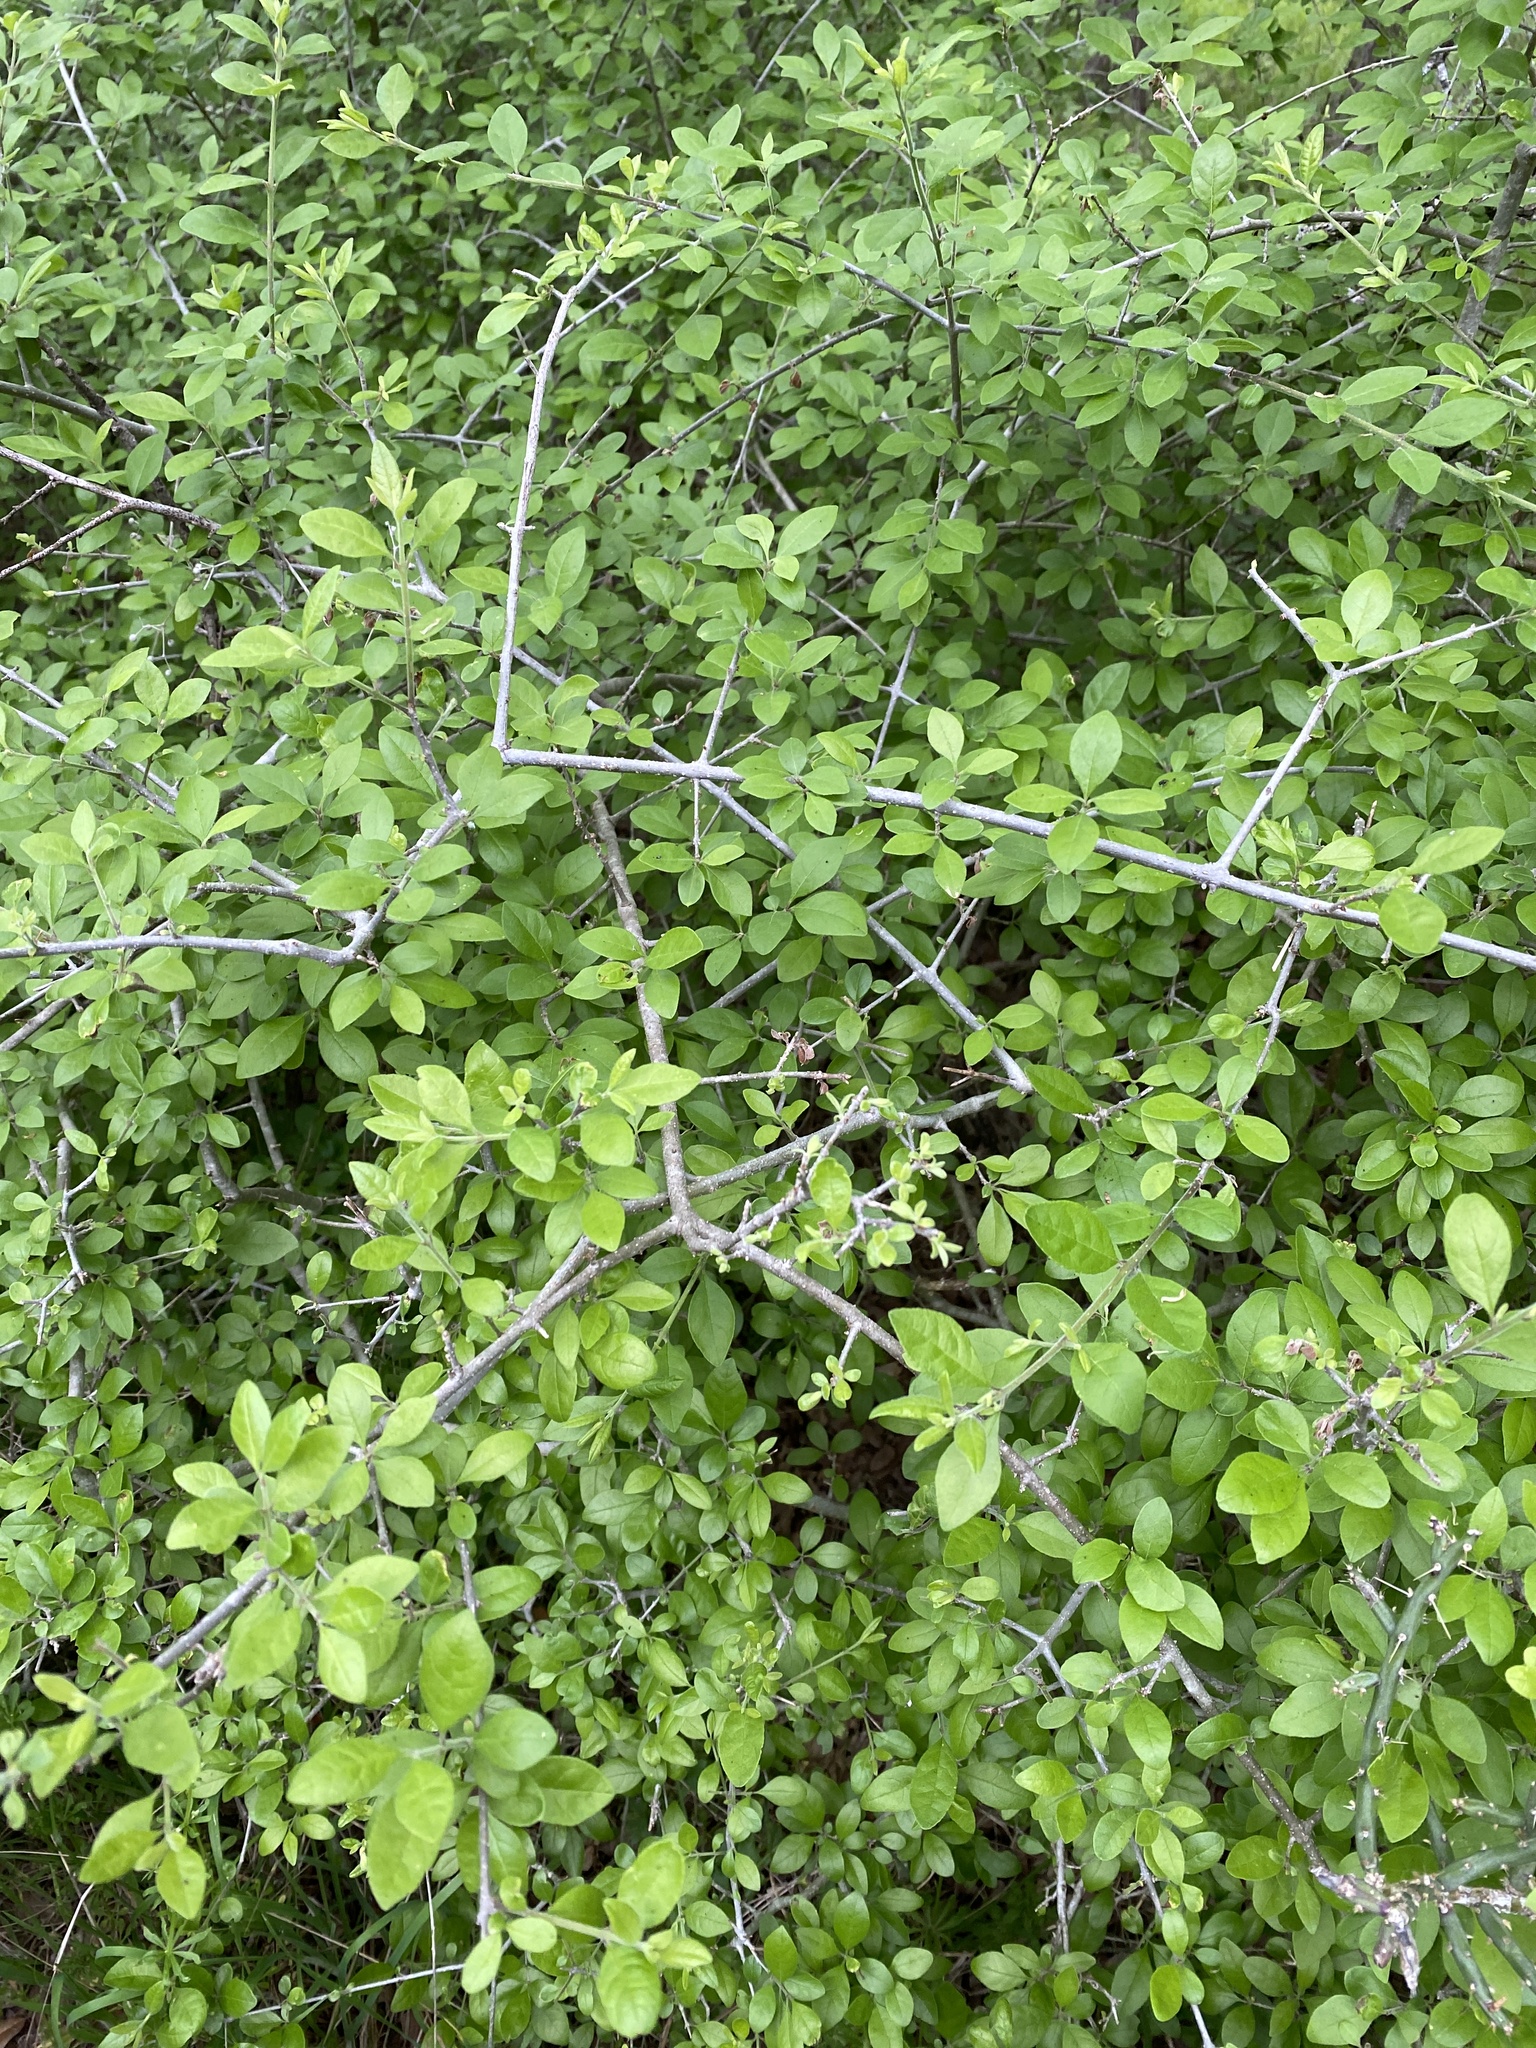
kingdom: Plantae
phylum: Tracheophyta
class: Magnoliopsida
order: Lamiales
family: Oleaceae
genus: Forestiera
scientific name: Forestiera pubescens
